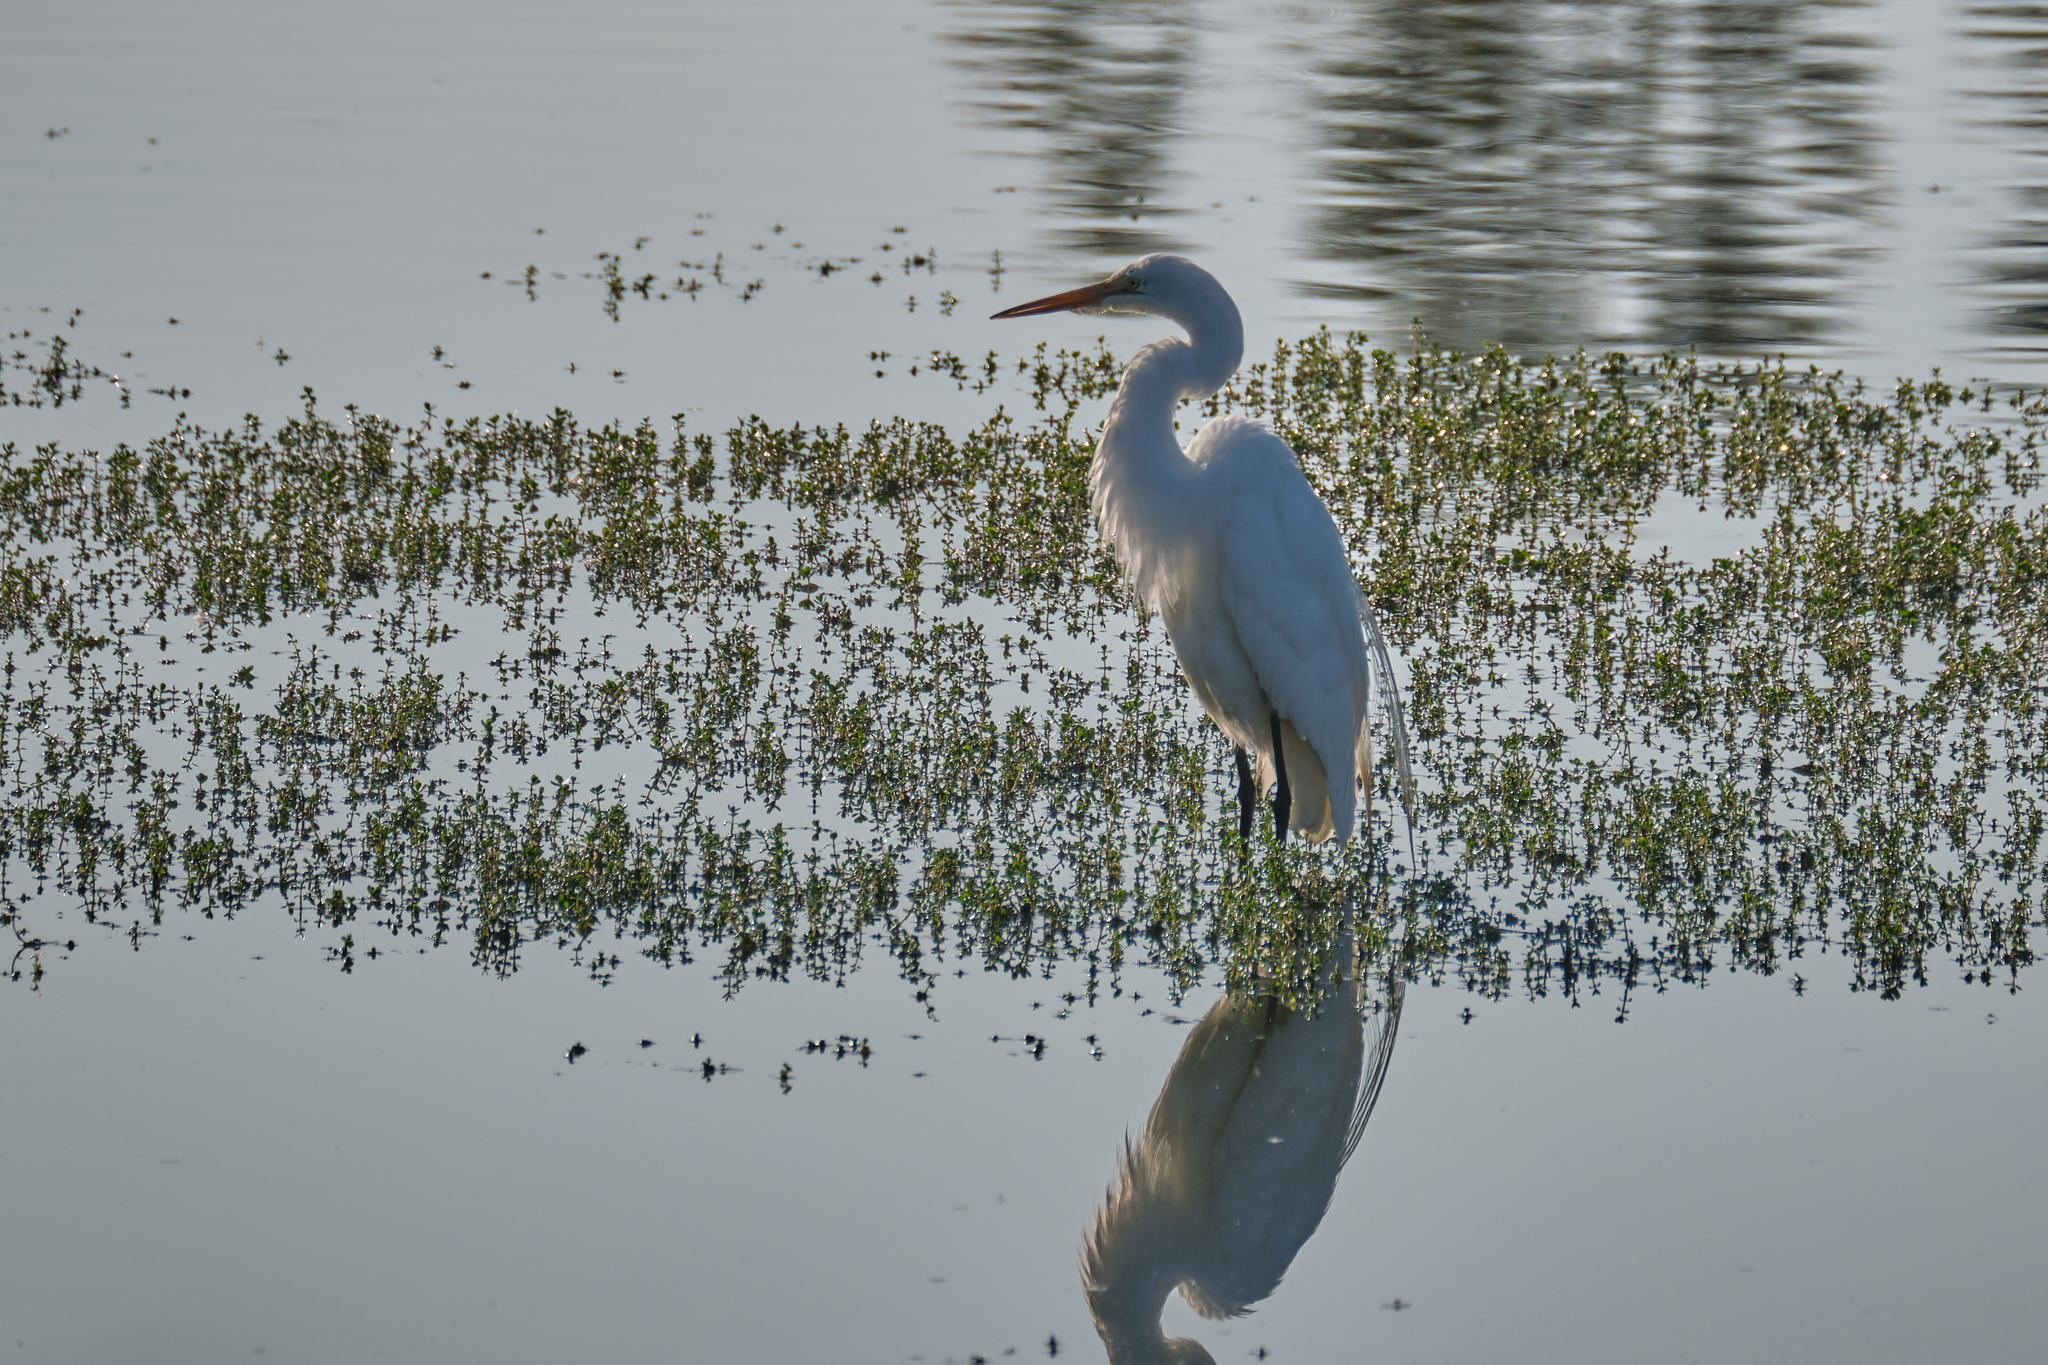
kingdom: Animalia
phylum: Chordata
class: Aves
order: Pelecaniformes
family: Ardeidae
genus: Ardea
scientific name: Ardea alba
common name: Great egret
